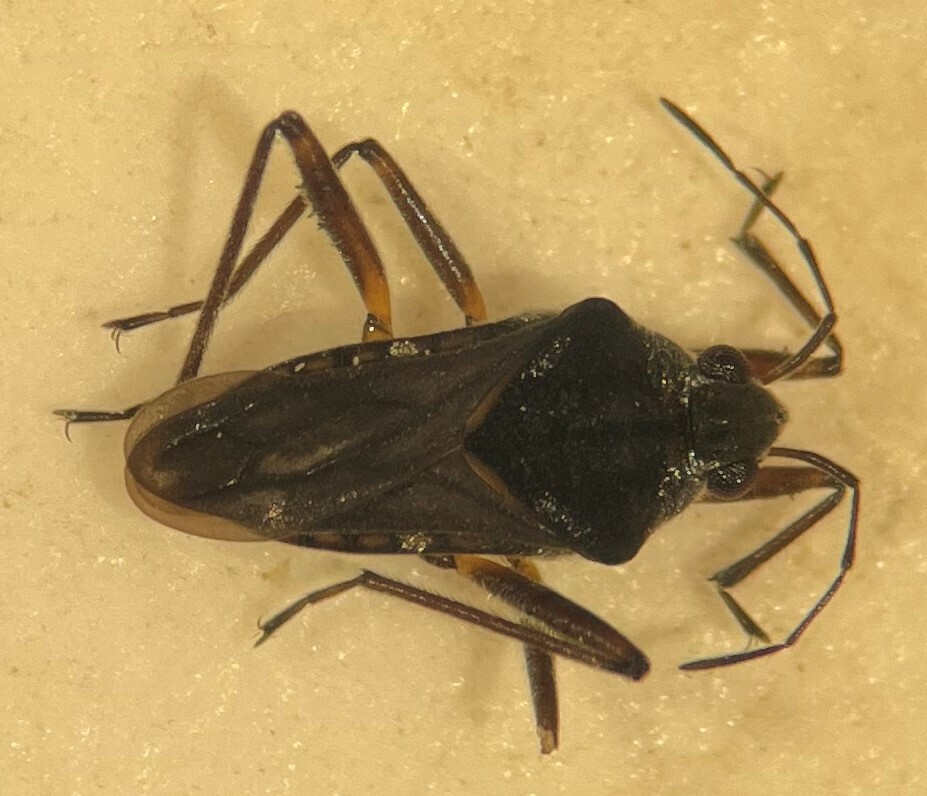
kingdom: Animalia
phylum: Arthropoda
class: Insecta
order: Hemiptera
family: Veliidae
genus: Microvelia
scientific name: Microvelia torquata
